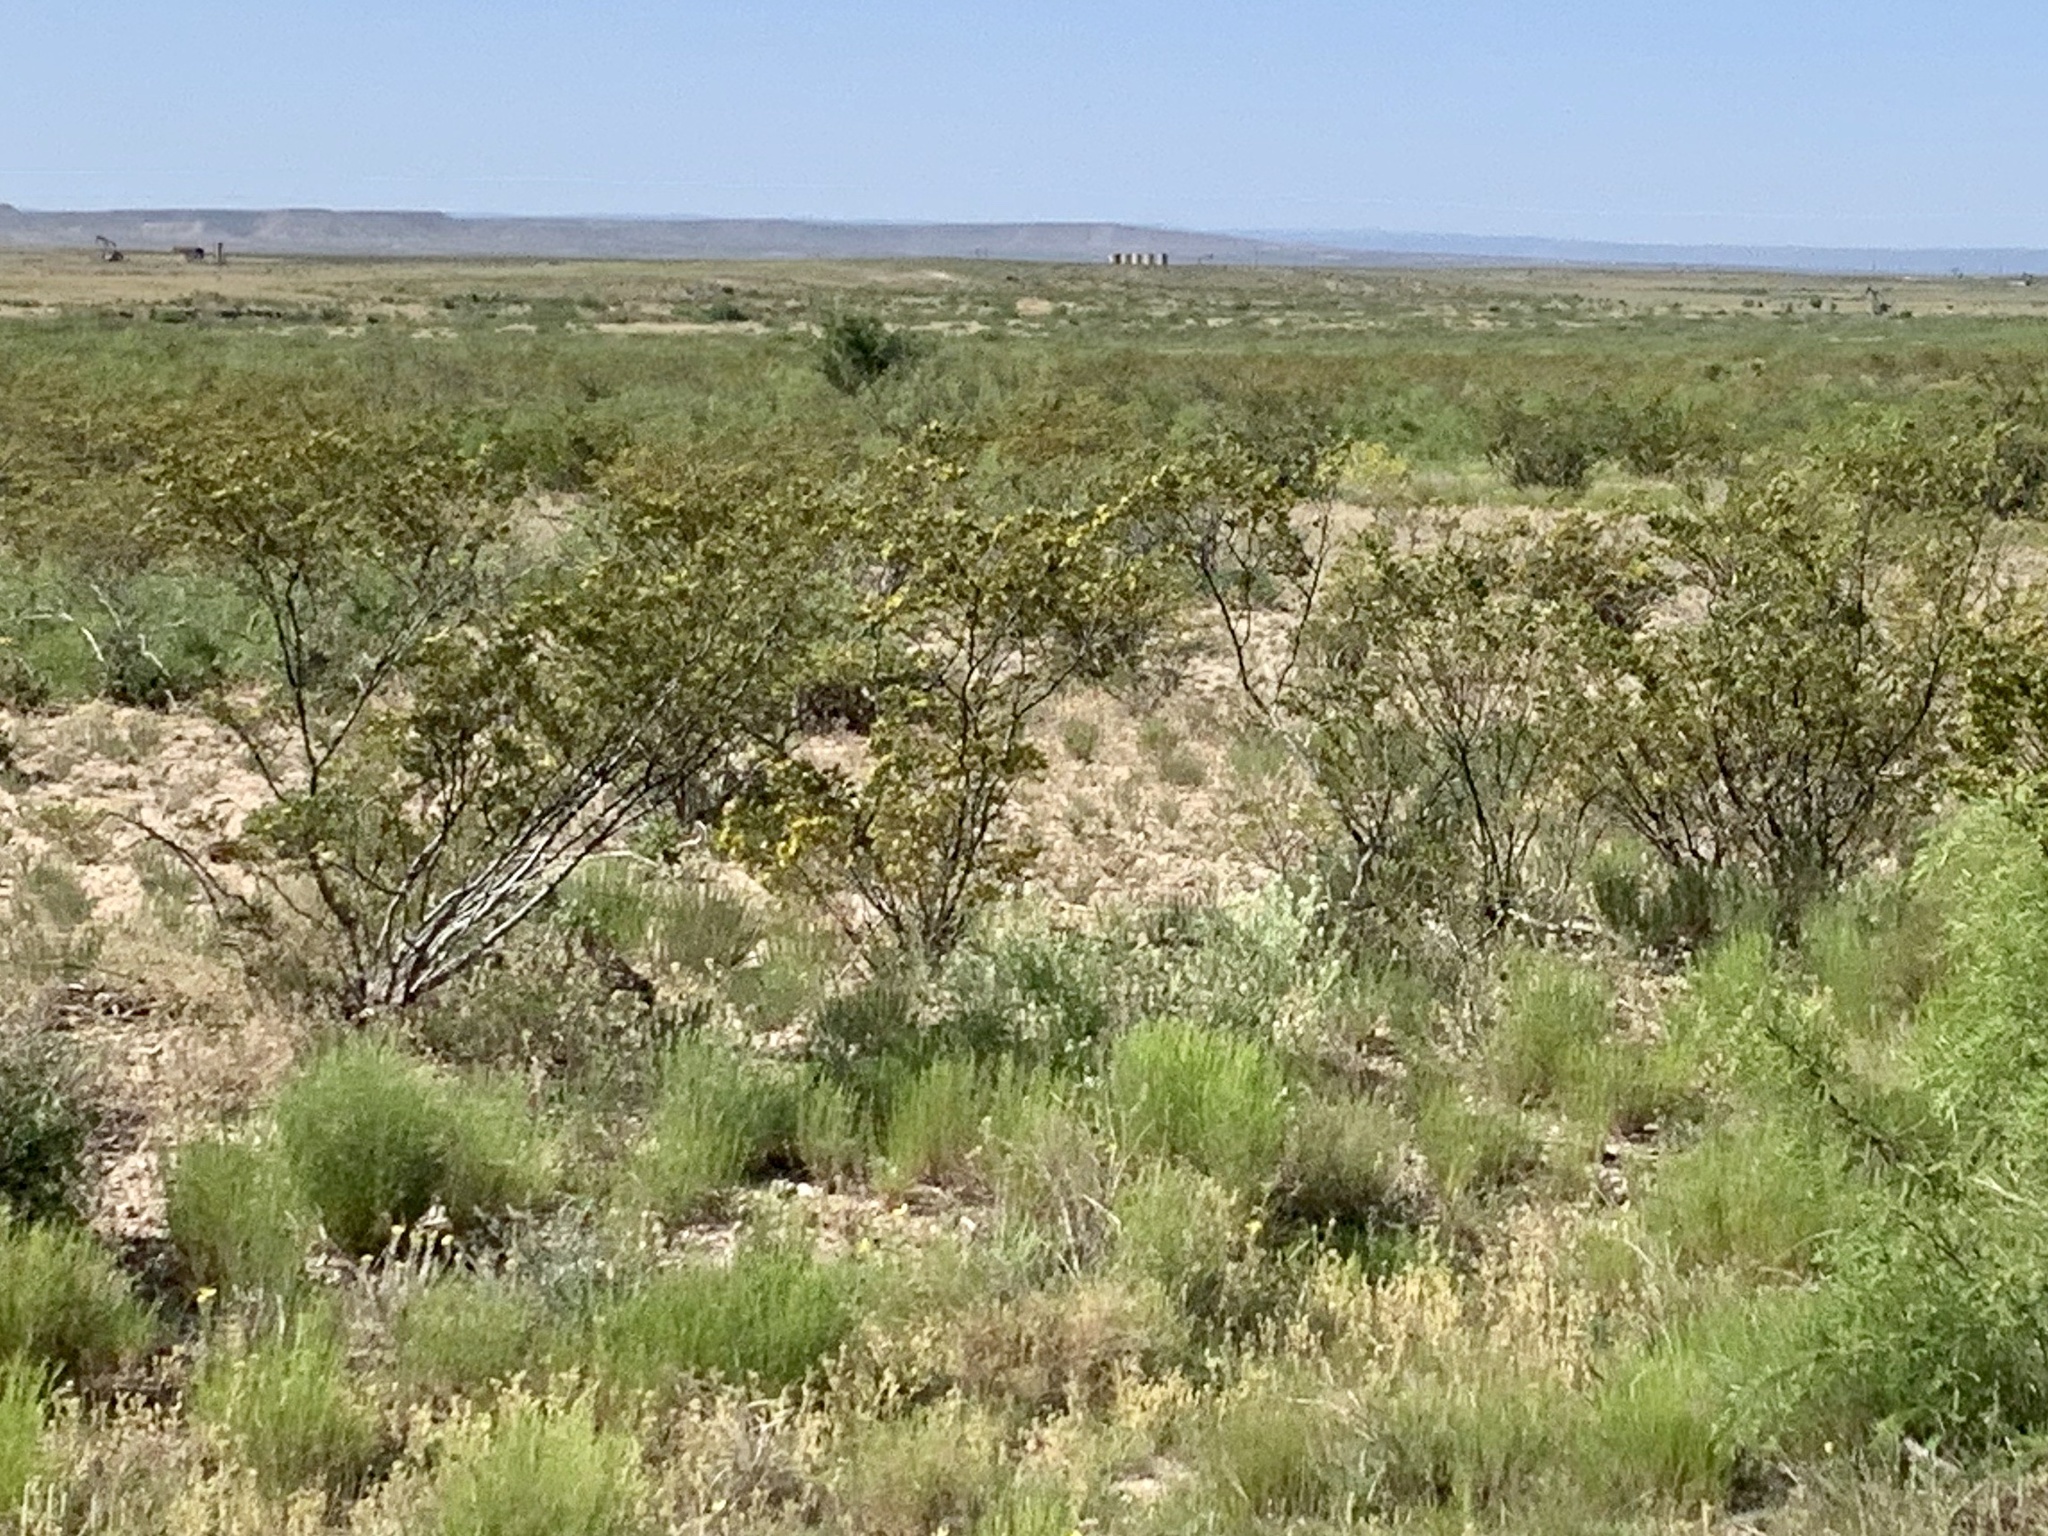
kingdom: Plantae
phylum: Tracheophyta
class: Magnoliopsida
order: Zygophyllales
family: Zygophyllaceae
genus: Larrea
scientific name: Larrea tridentata
